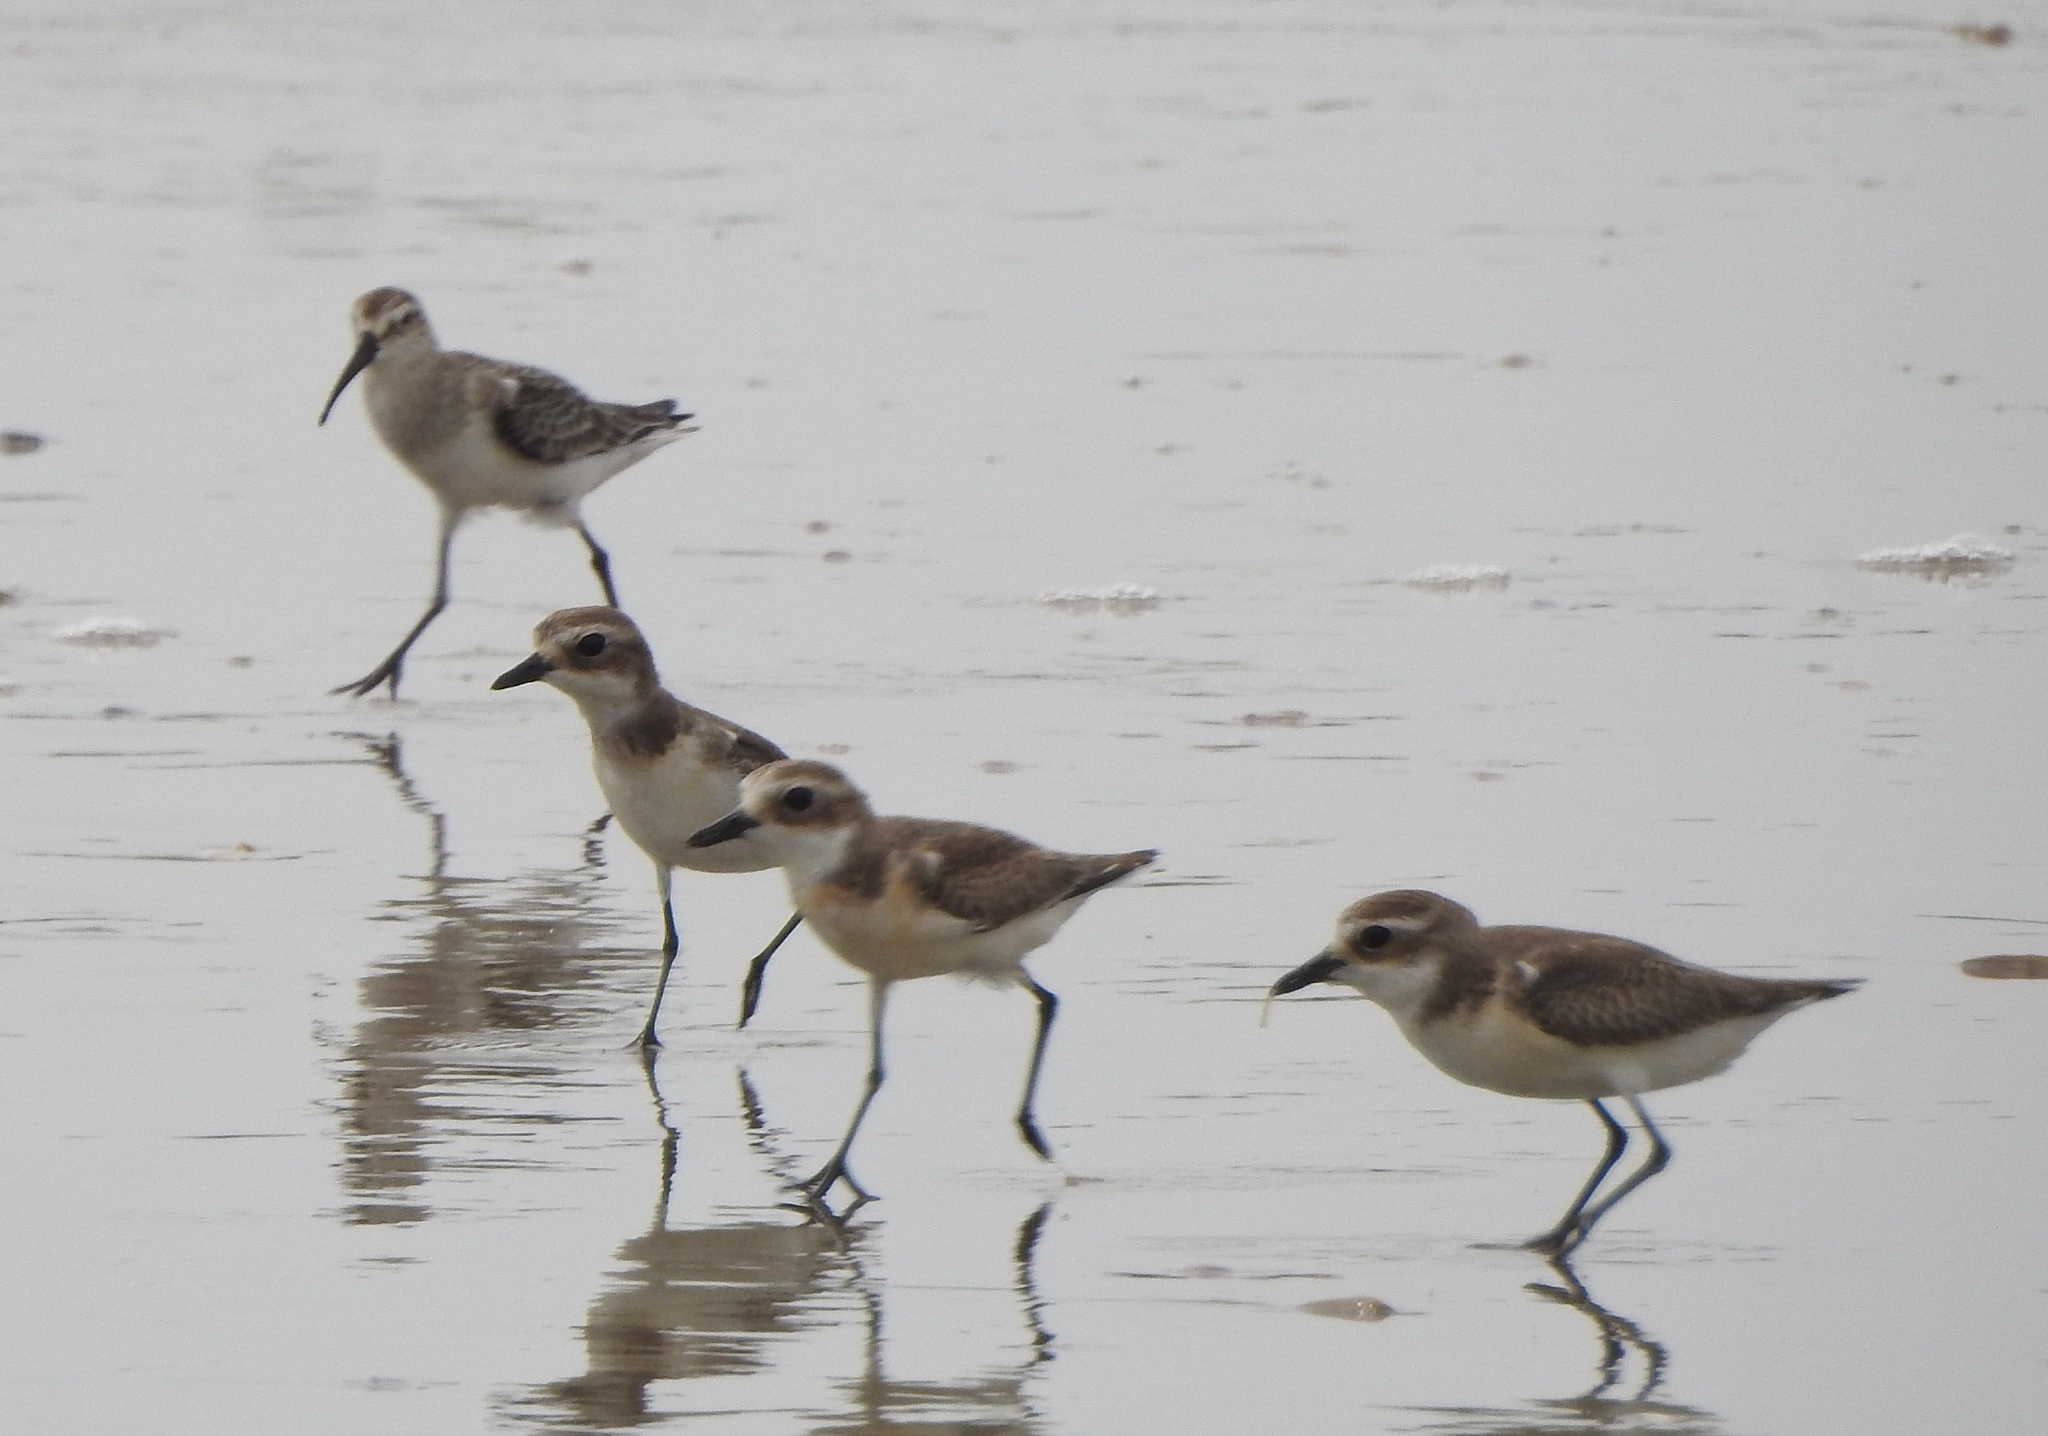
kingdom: Animalia
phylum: Chordata
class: Aves
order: Charadriiformes
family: Charadriidae
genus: Anarhynchus
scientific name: Anarhynchus
